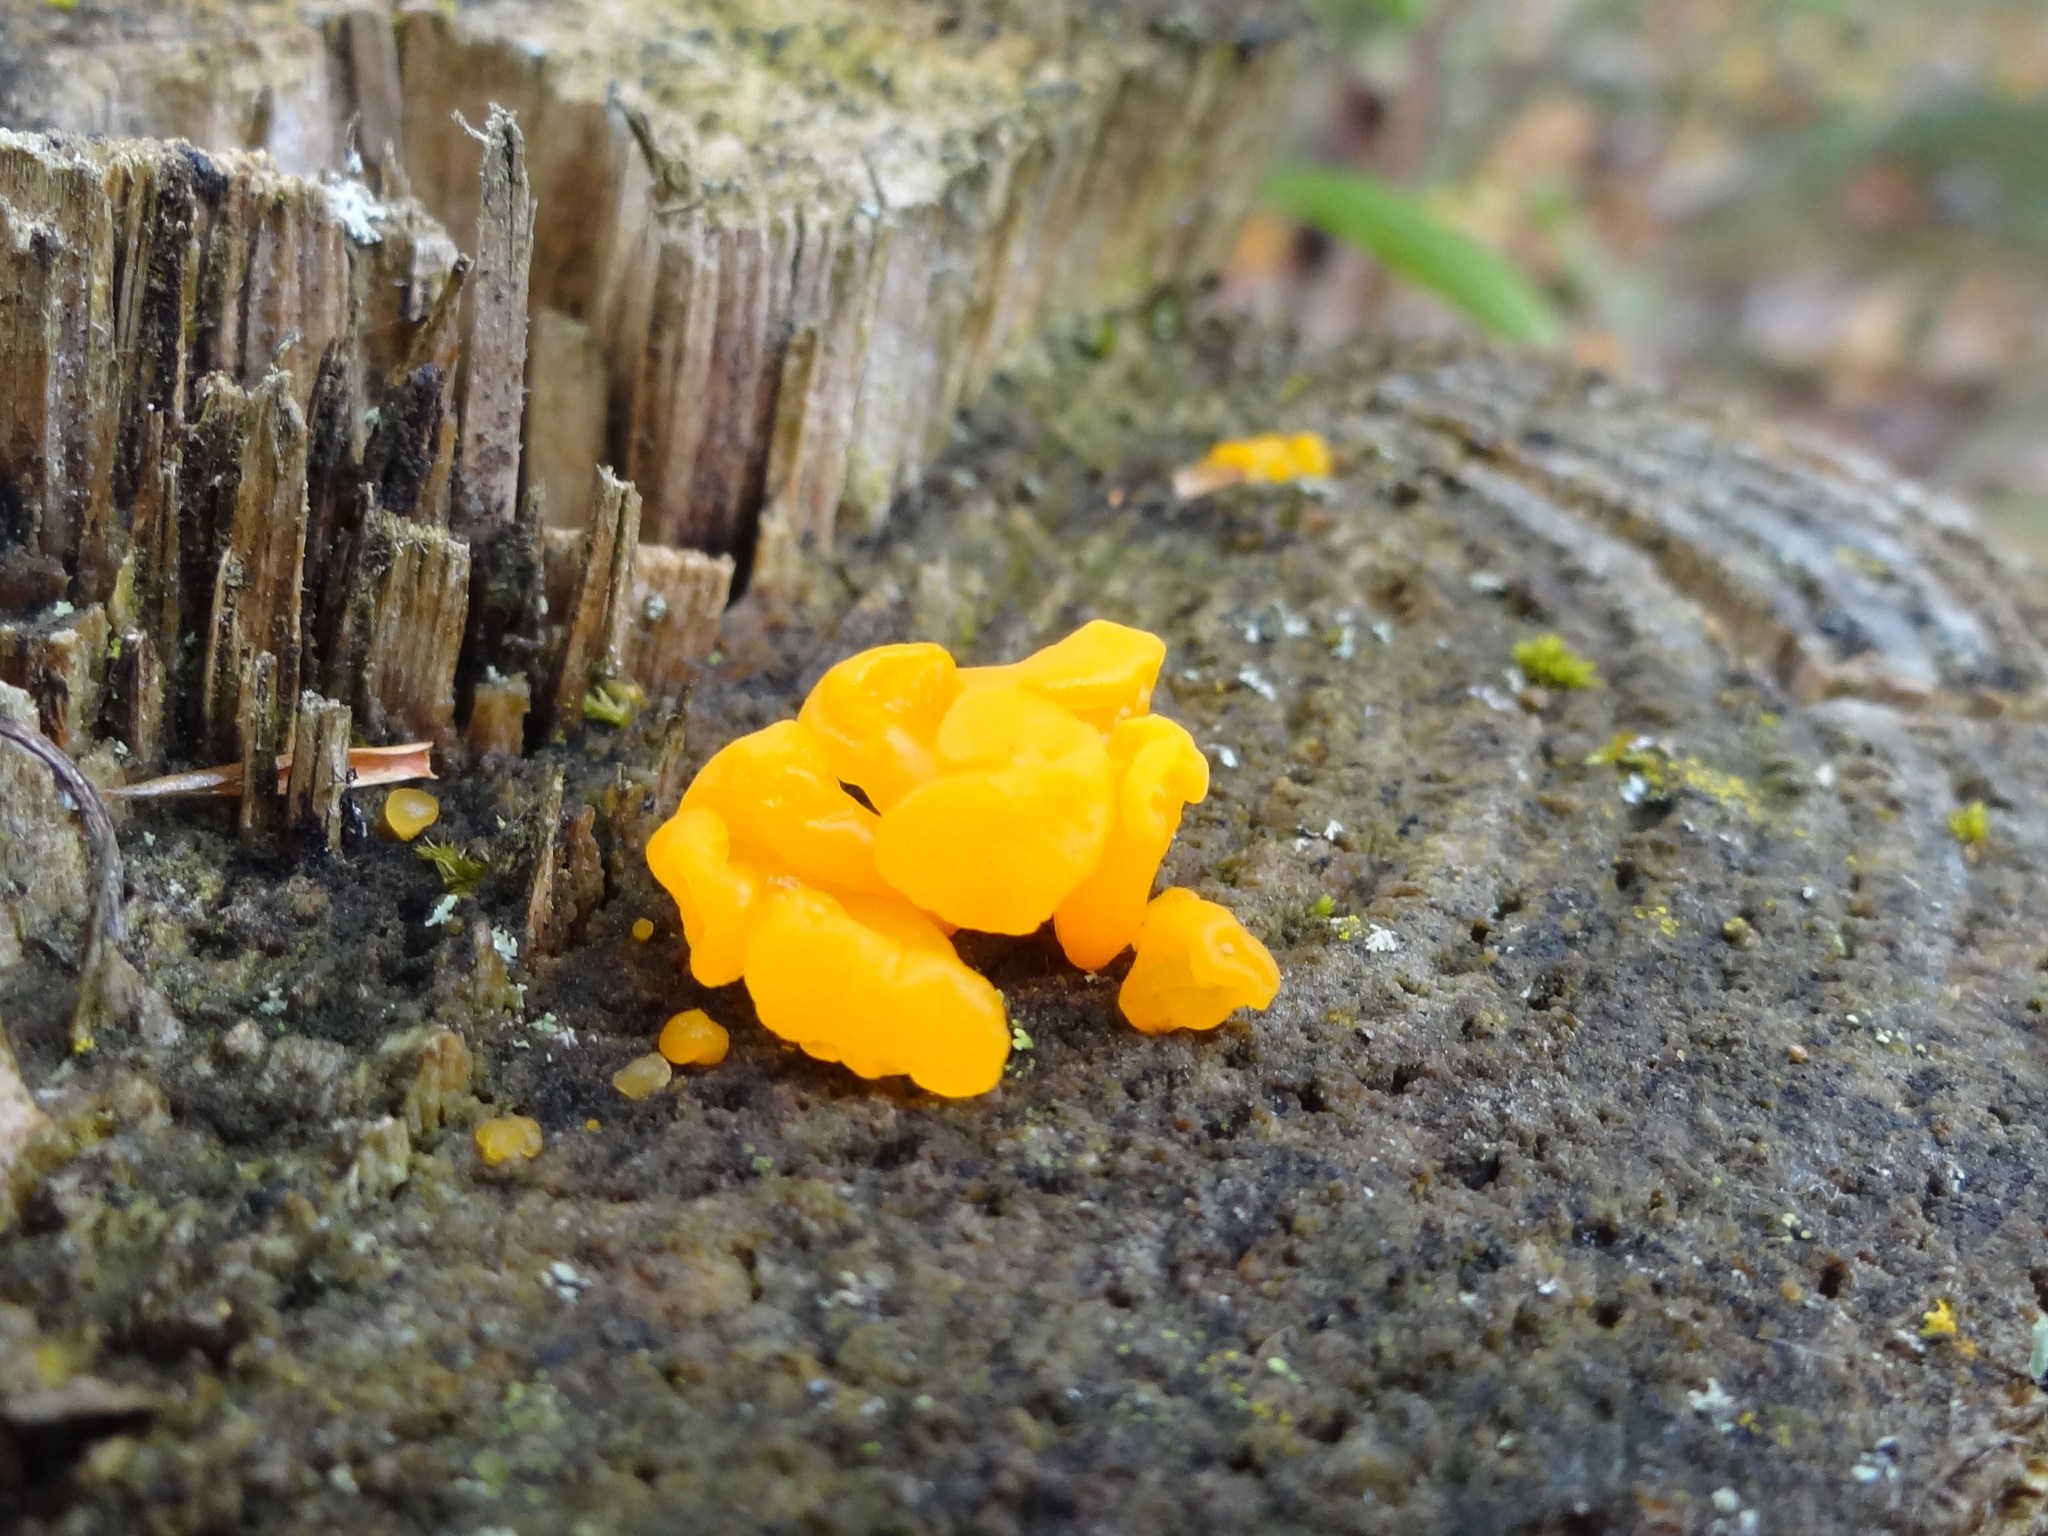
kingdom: Fungi
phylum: Basidiomycota
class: Dacrymycetes
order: Dacrymycetales
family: Dacrymycetaceae
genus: Dacrymyces
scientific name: Dacrymyces chrysospermus
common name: Orange jelly spot
